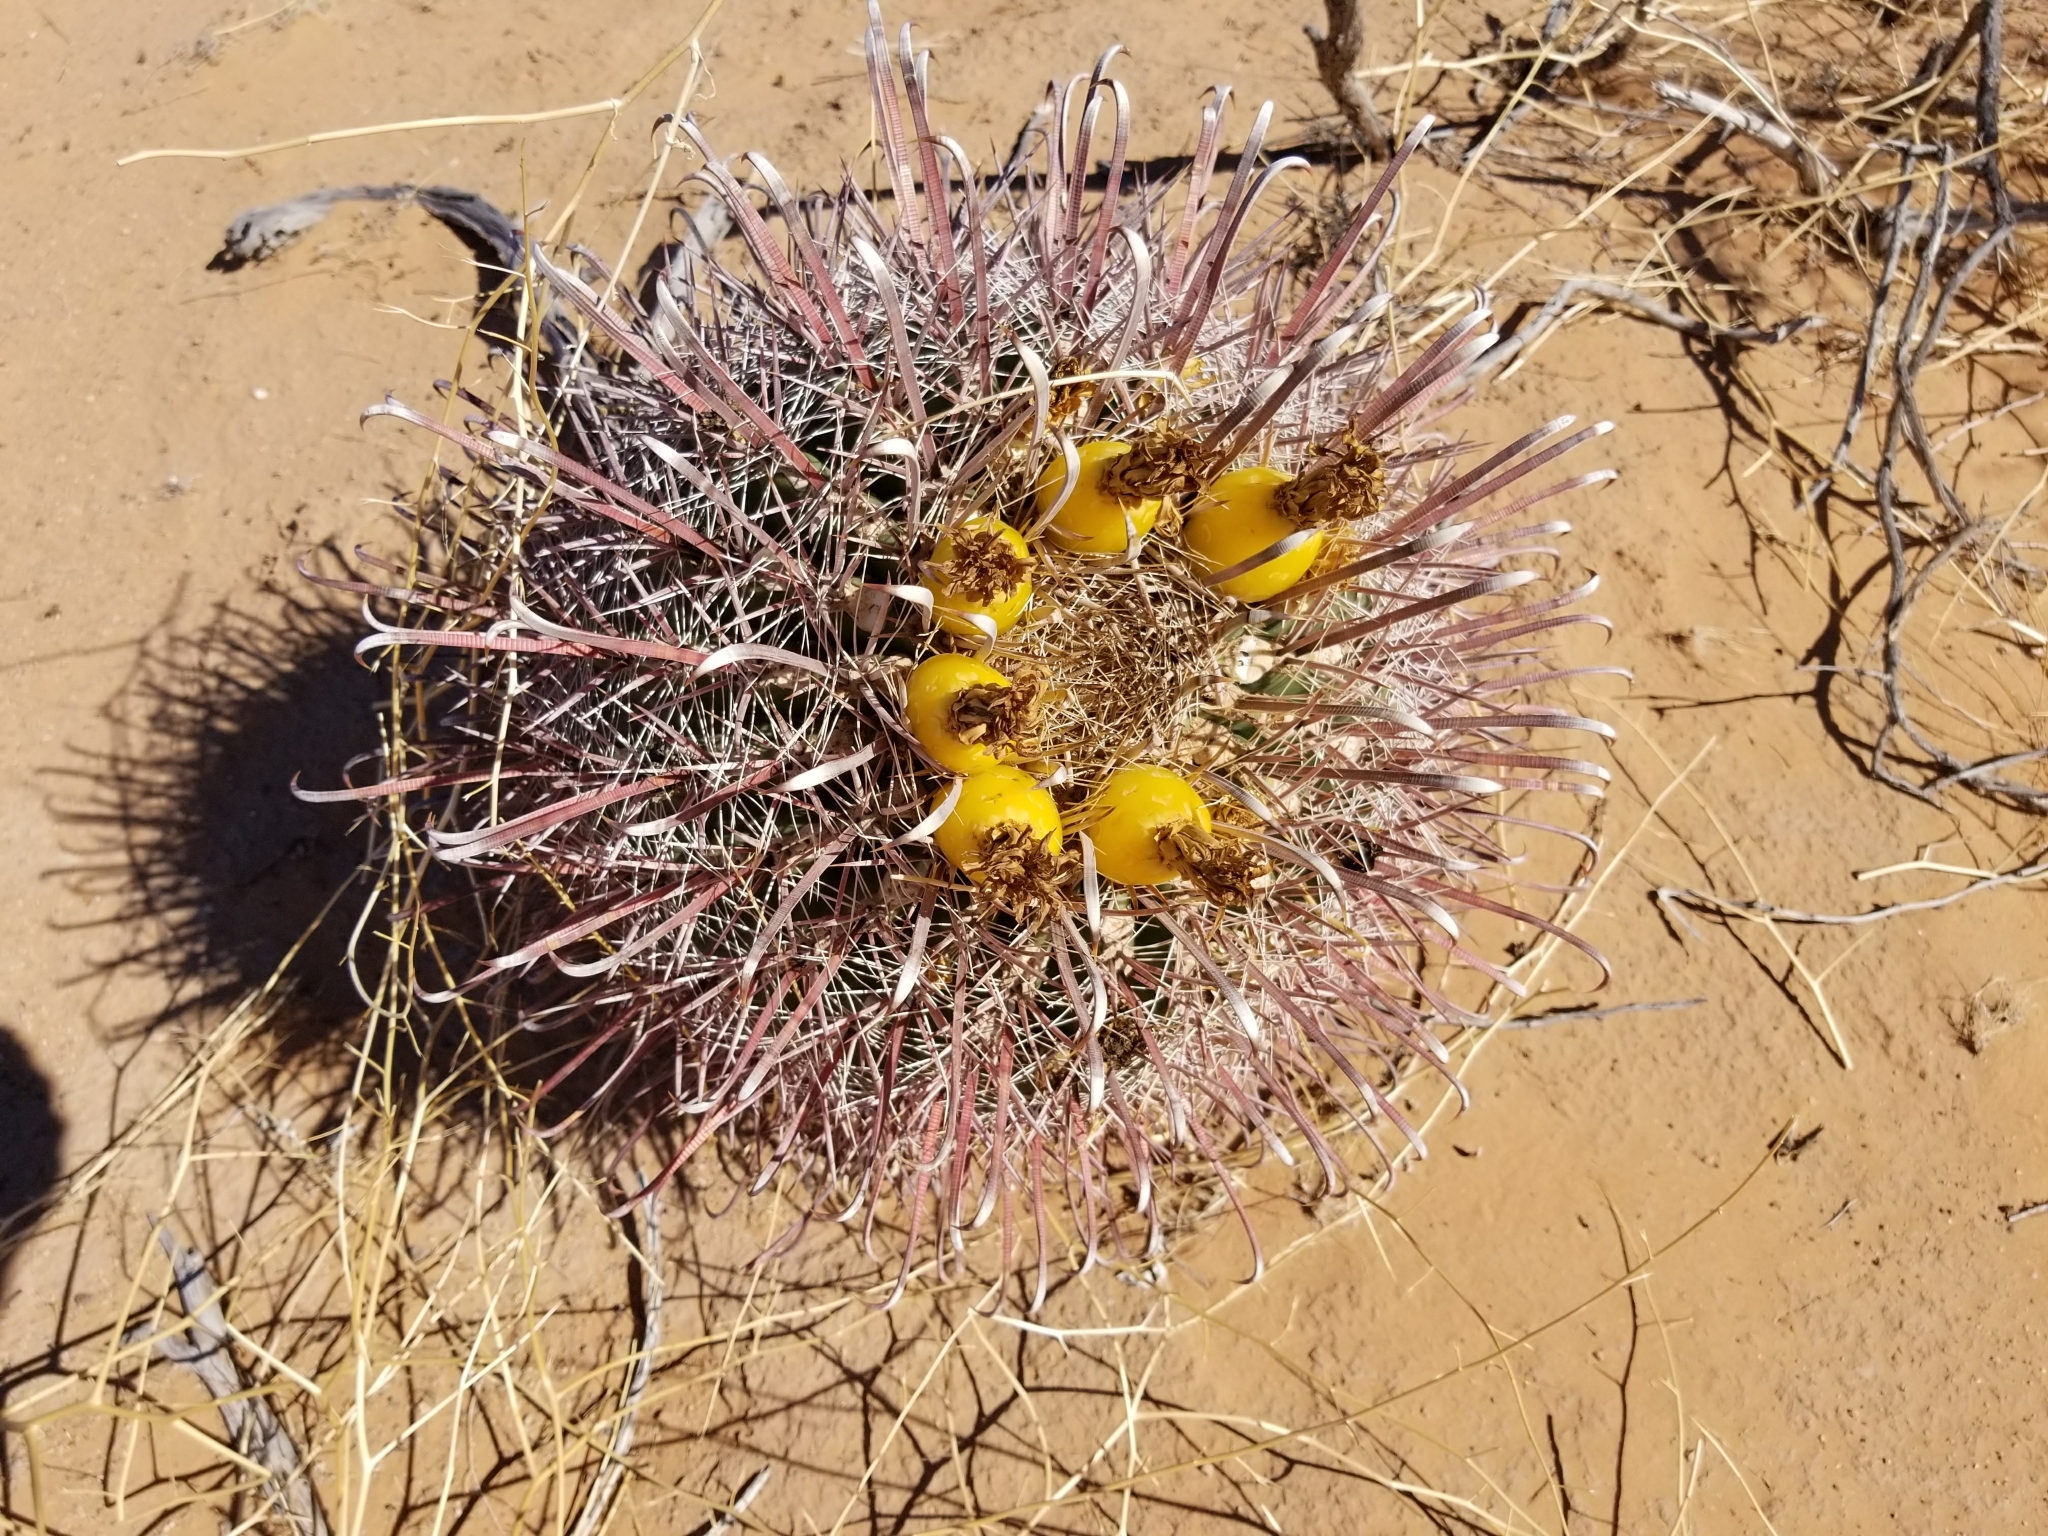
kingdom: Plantae
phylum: Tracheophyta
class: Magnoliopsida
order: Caryophyllales
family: Cactaceae
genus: Ferocactus
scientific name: Ferocactus cylindraceus
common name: California barrel cactus
